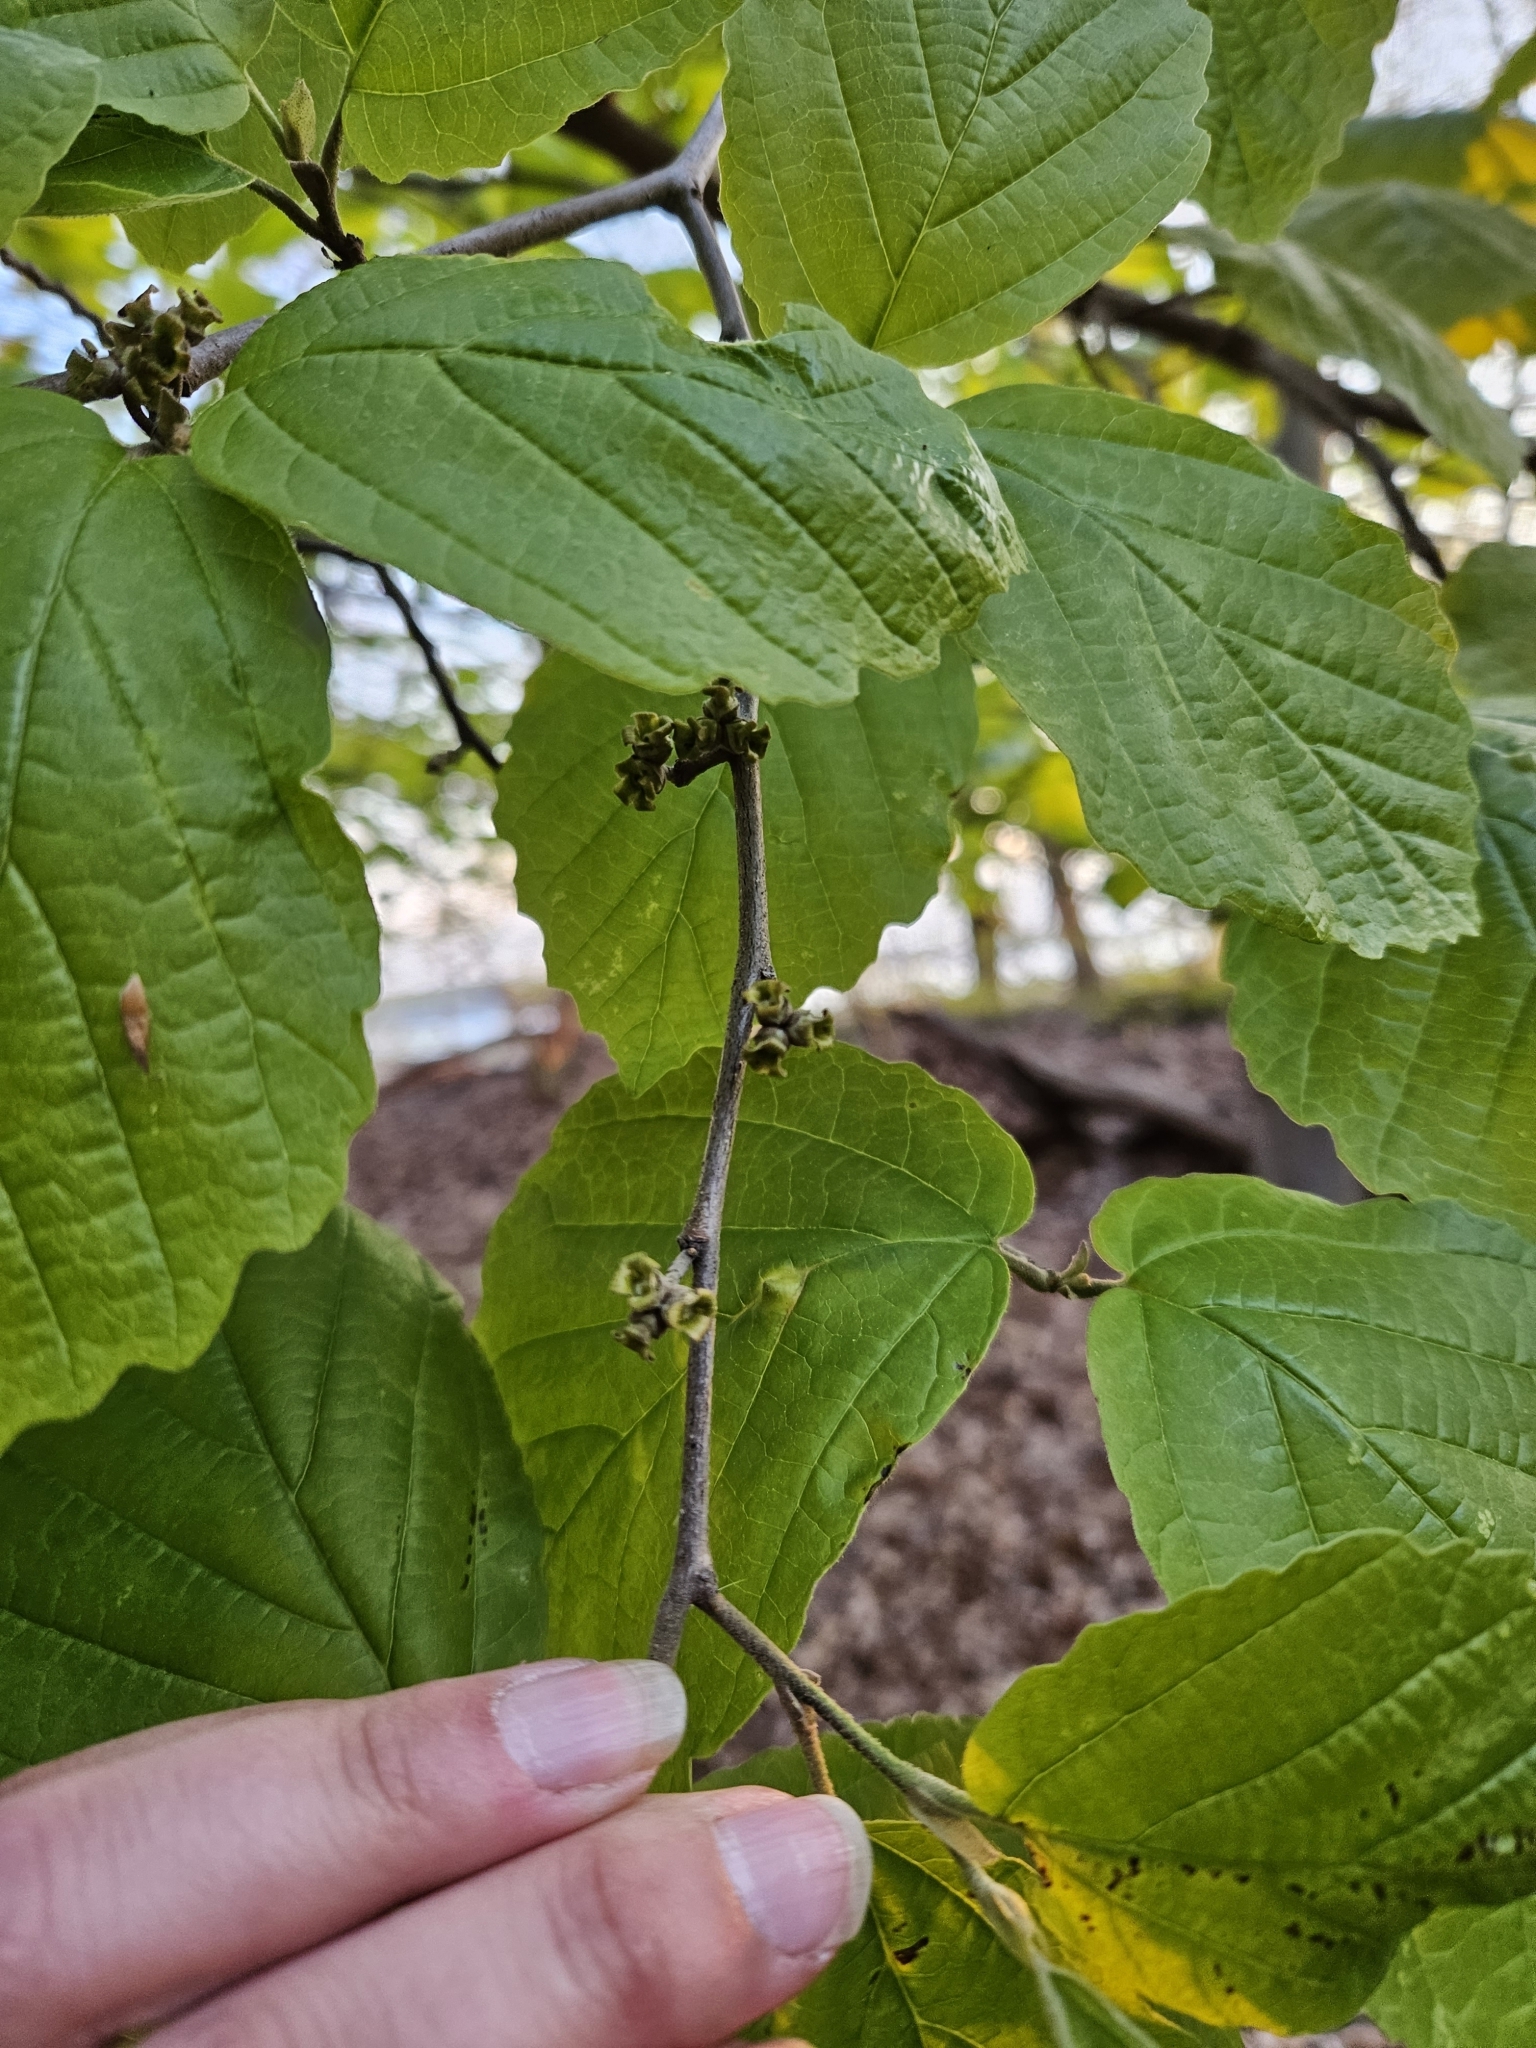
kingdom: Plantae
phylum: Tracheophyta
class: Magnoliopsida
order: Saxifragales
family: Hamamelidaceae
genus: Hamamelis
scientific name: Hamamelis virginiana
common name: Witch-hazel
